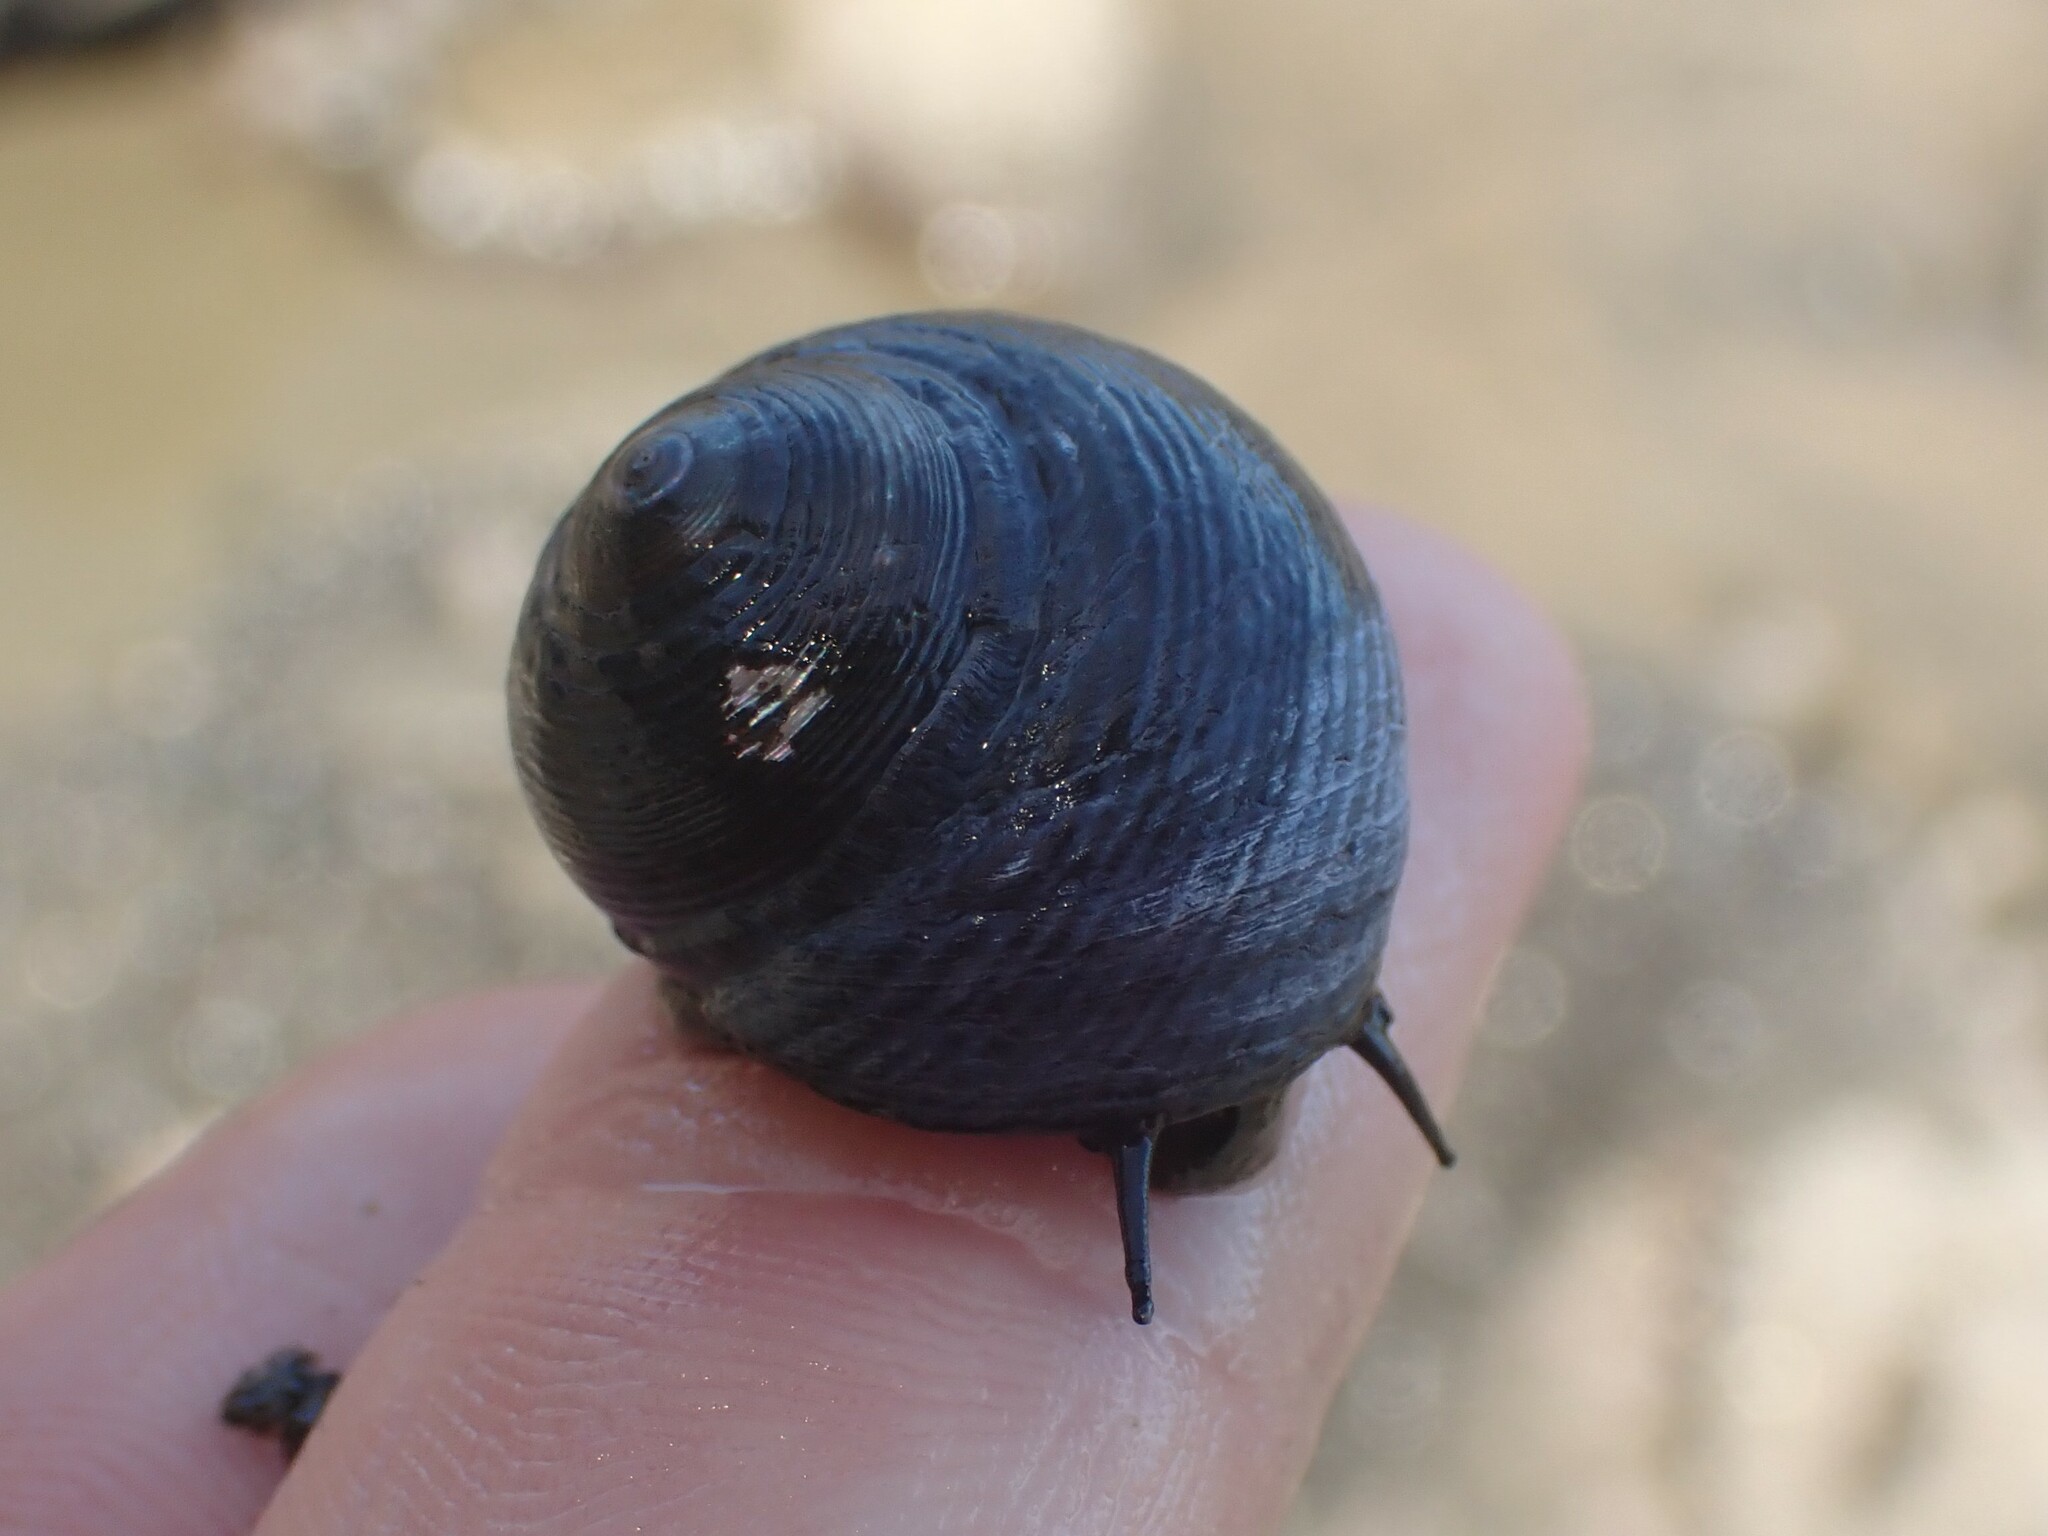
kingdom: Animalia
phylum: Mollusca
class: Gastropoda
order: Trochida
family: Trochidae
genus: Diloma
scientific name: Diloma nigerrimum
